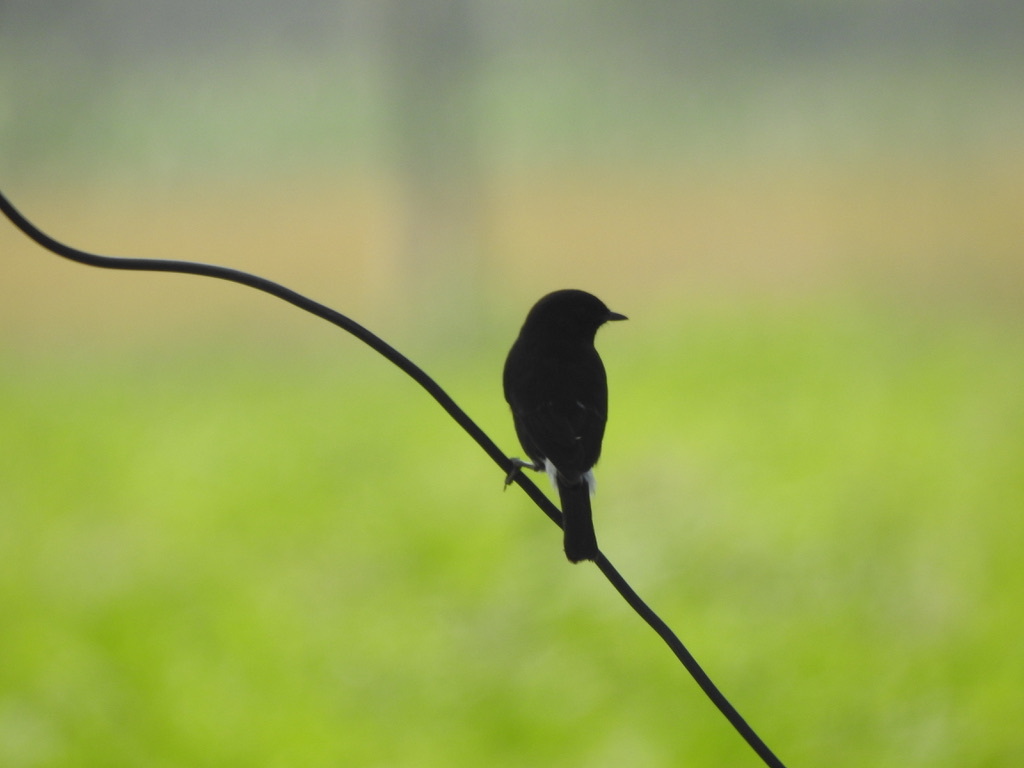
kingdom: Animalia
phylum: Chordata
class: Aves
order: Passeriformes
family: Muscicapidae
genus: Saxicola
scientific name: Saxicola caprata
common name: Pied bush chat
